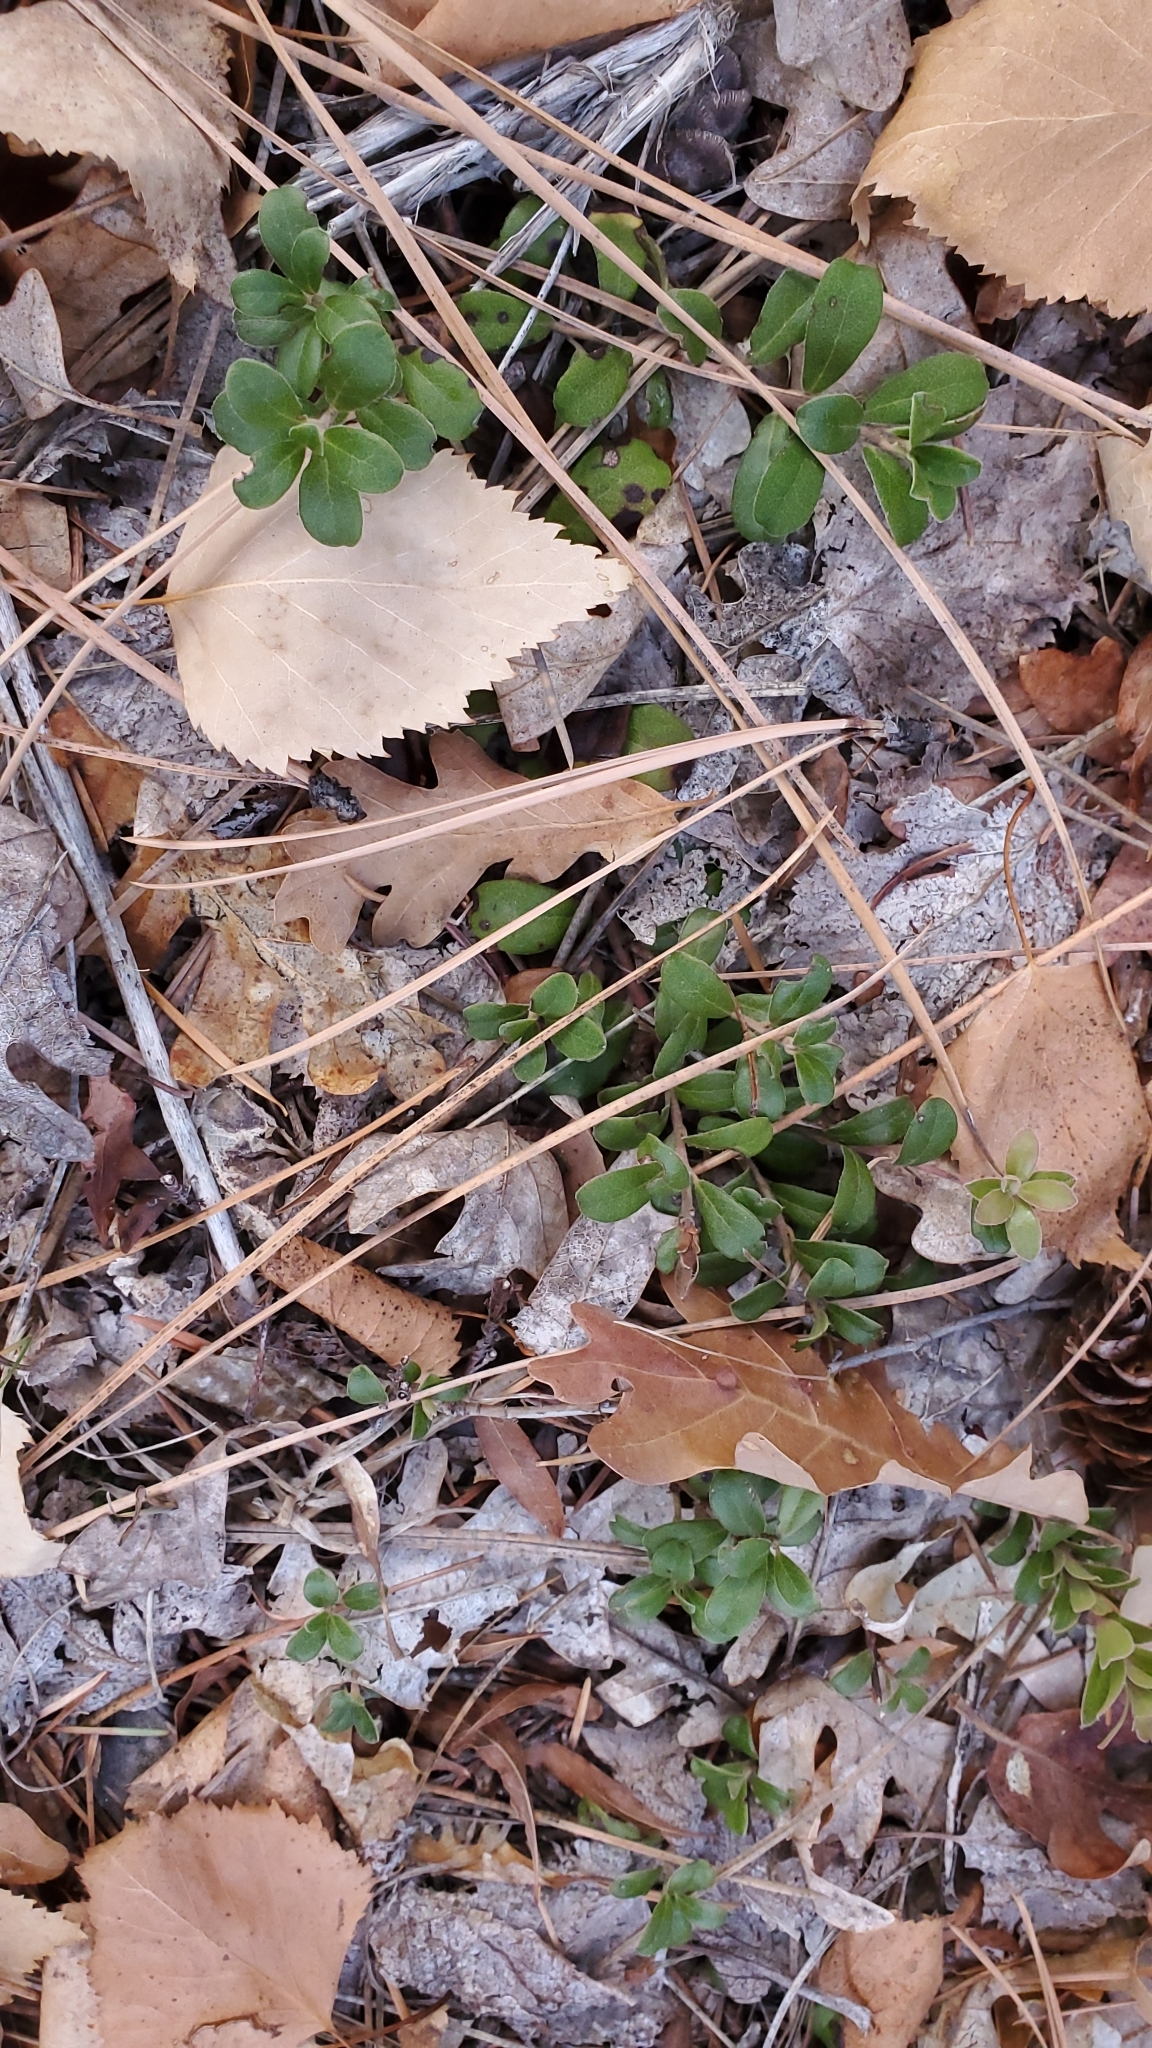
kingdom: Plantae
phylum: Tracheophyta
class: Magnoliopsida
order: Ericales
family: Ericaceae
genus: Arctostaphylos
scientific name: Arctostaphylos uva-ursi
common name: Bearberry
